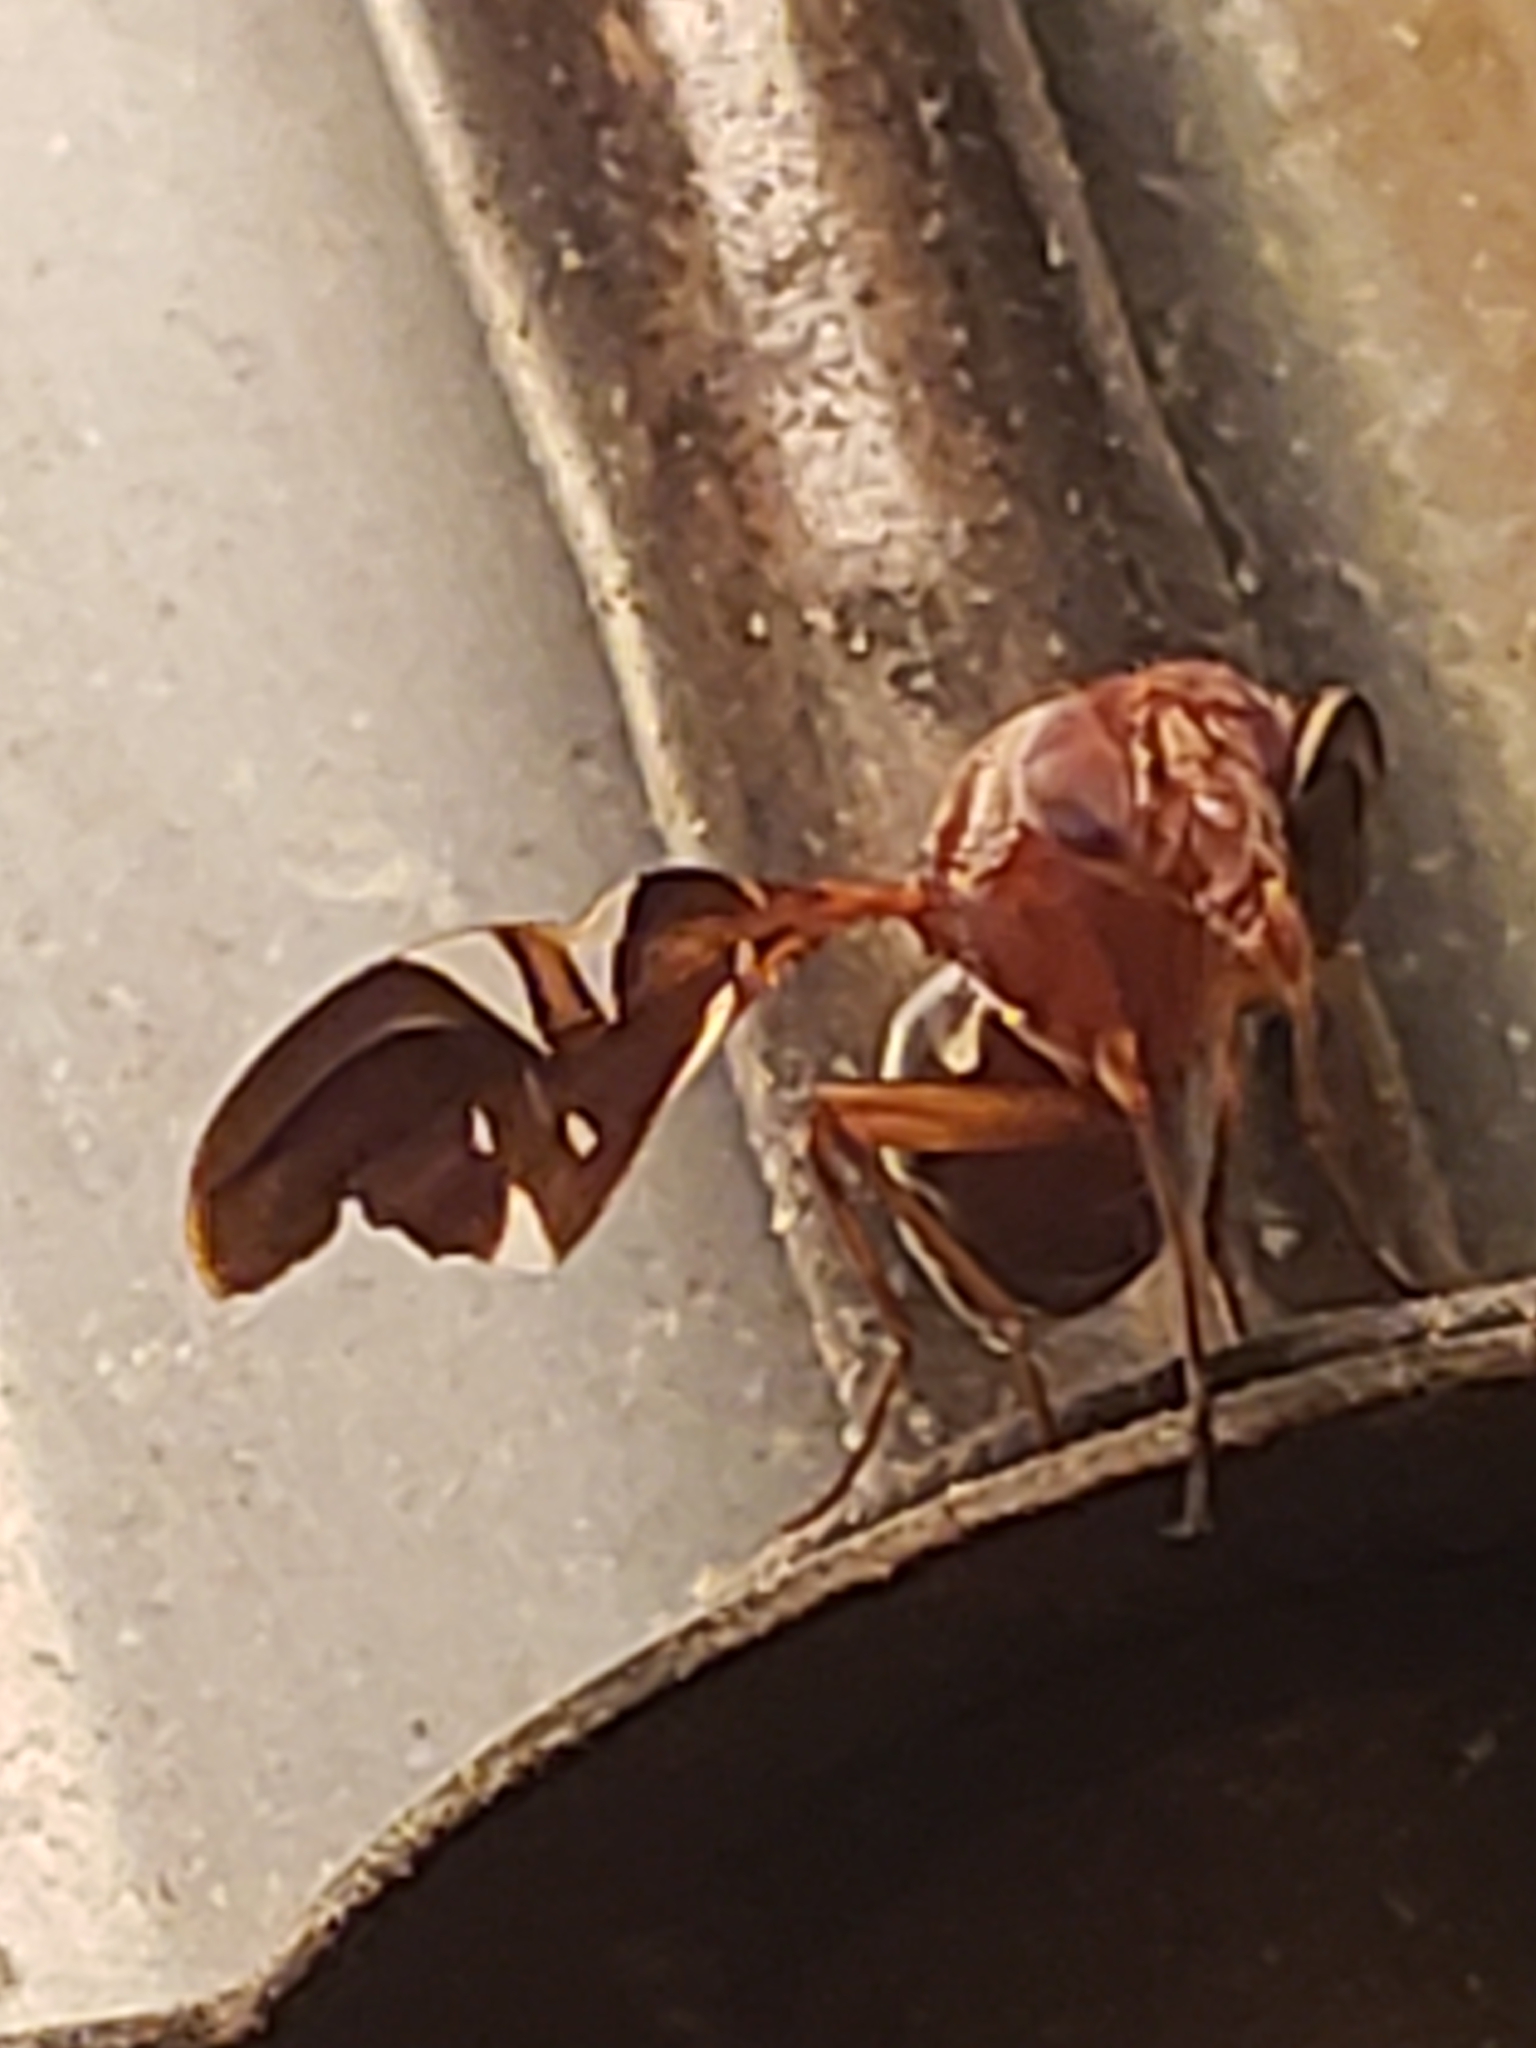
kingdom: Animalia
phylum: Arthropoda
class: Insecta
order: Diptera
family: Ulidiidae
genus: Delphinia
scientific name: Delphinia picta
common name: Common picture-winged fly
